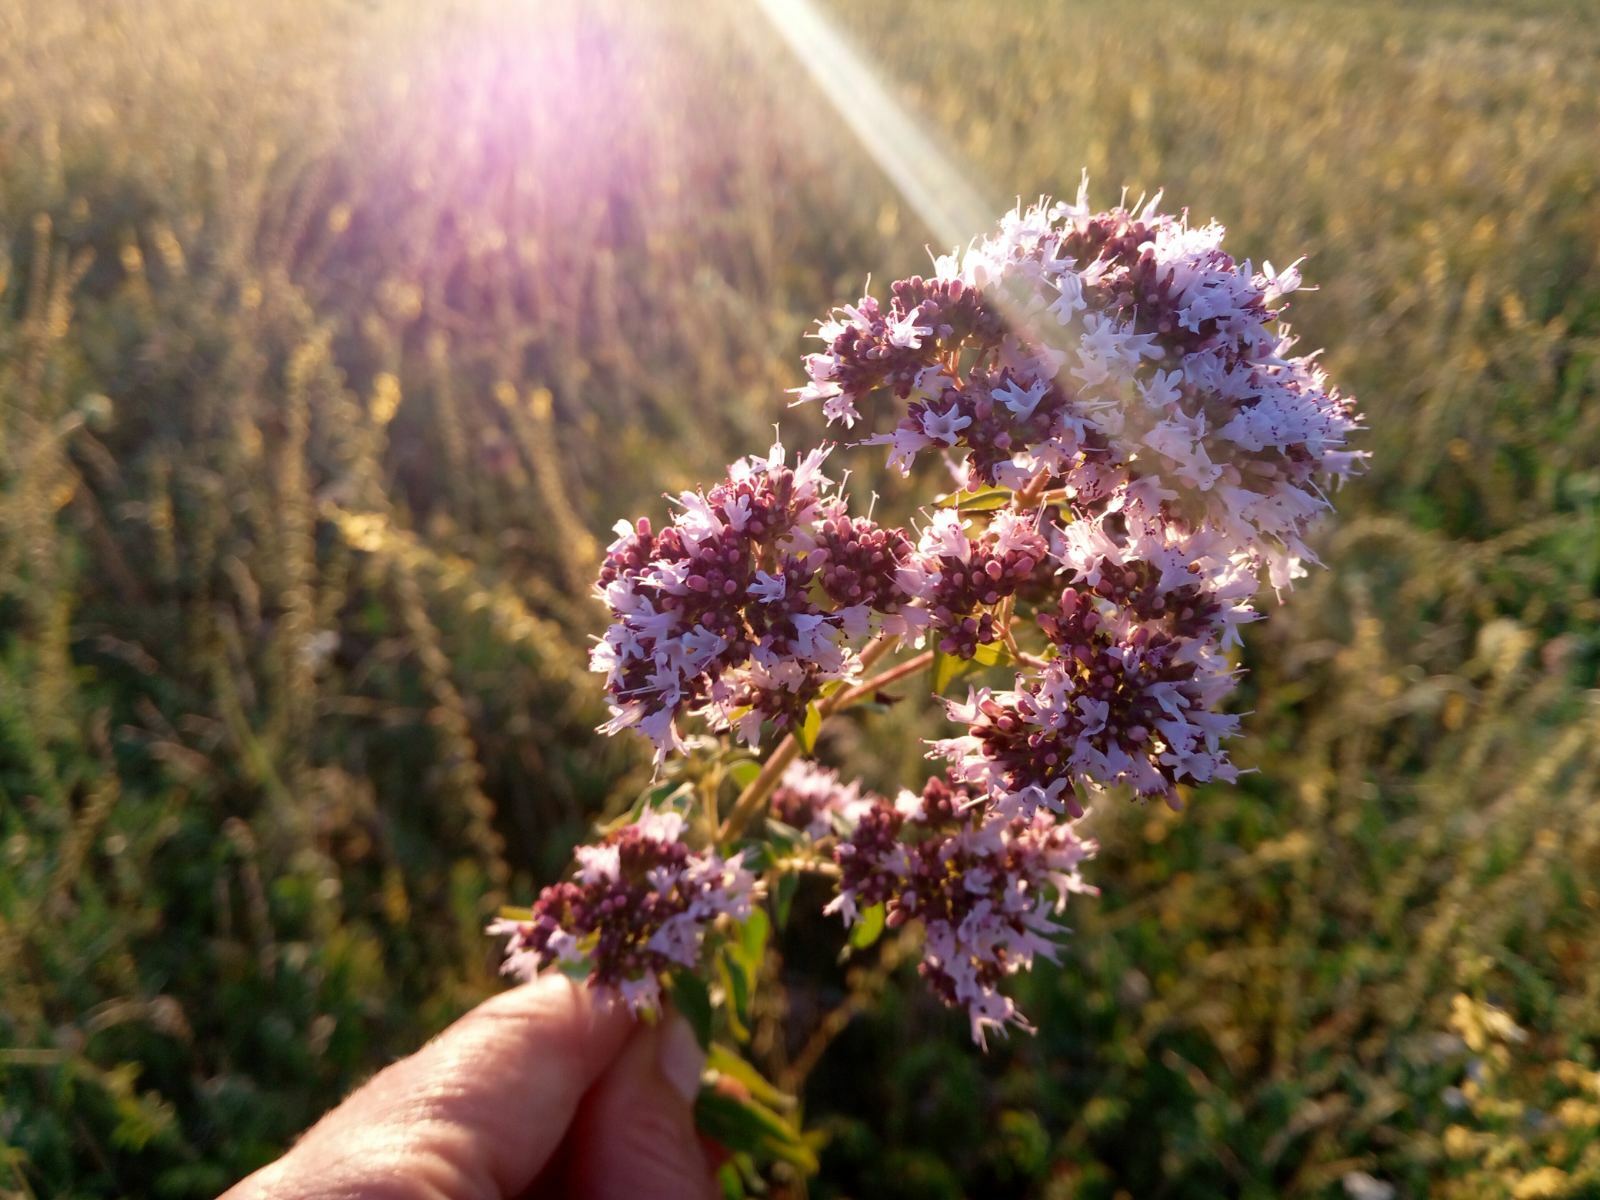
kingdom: Plantae
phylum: Tracheophyta
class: Magnoliopsida
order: Lamiales
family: Lamiaceae
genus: Origanum
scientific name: Origanum vulgare
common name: Wild marjoram
